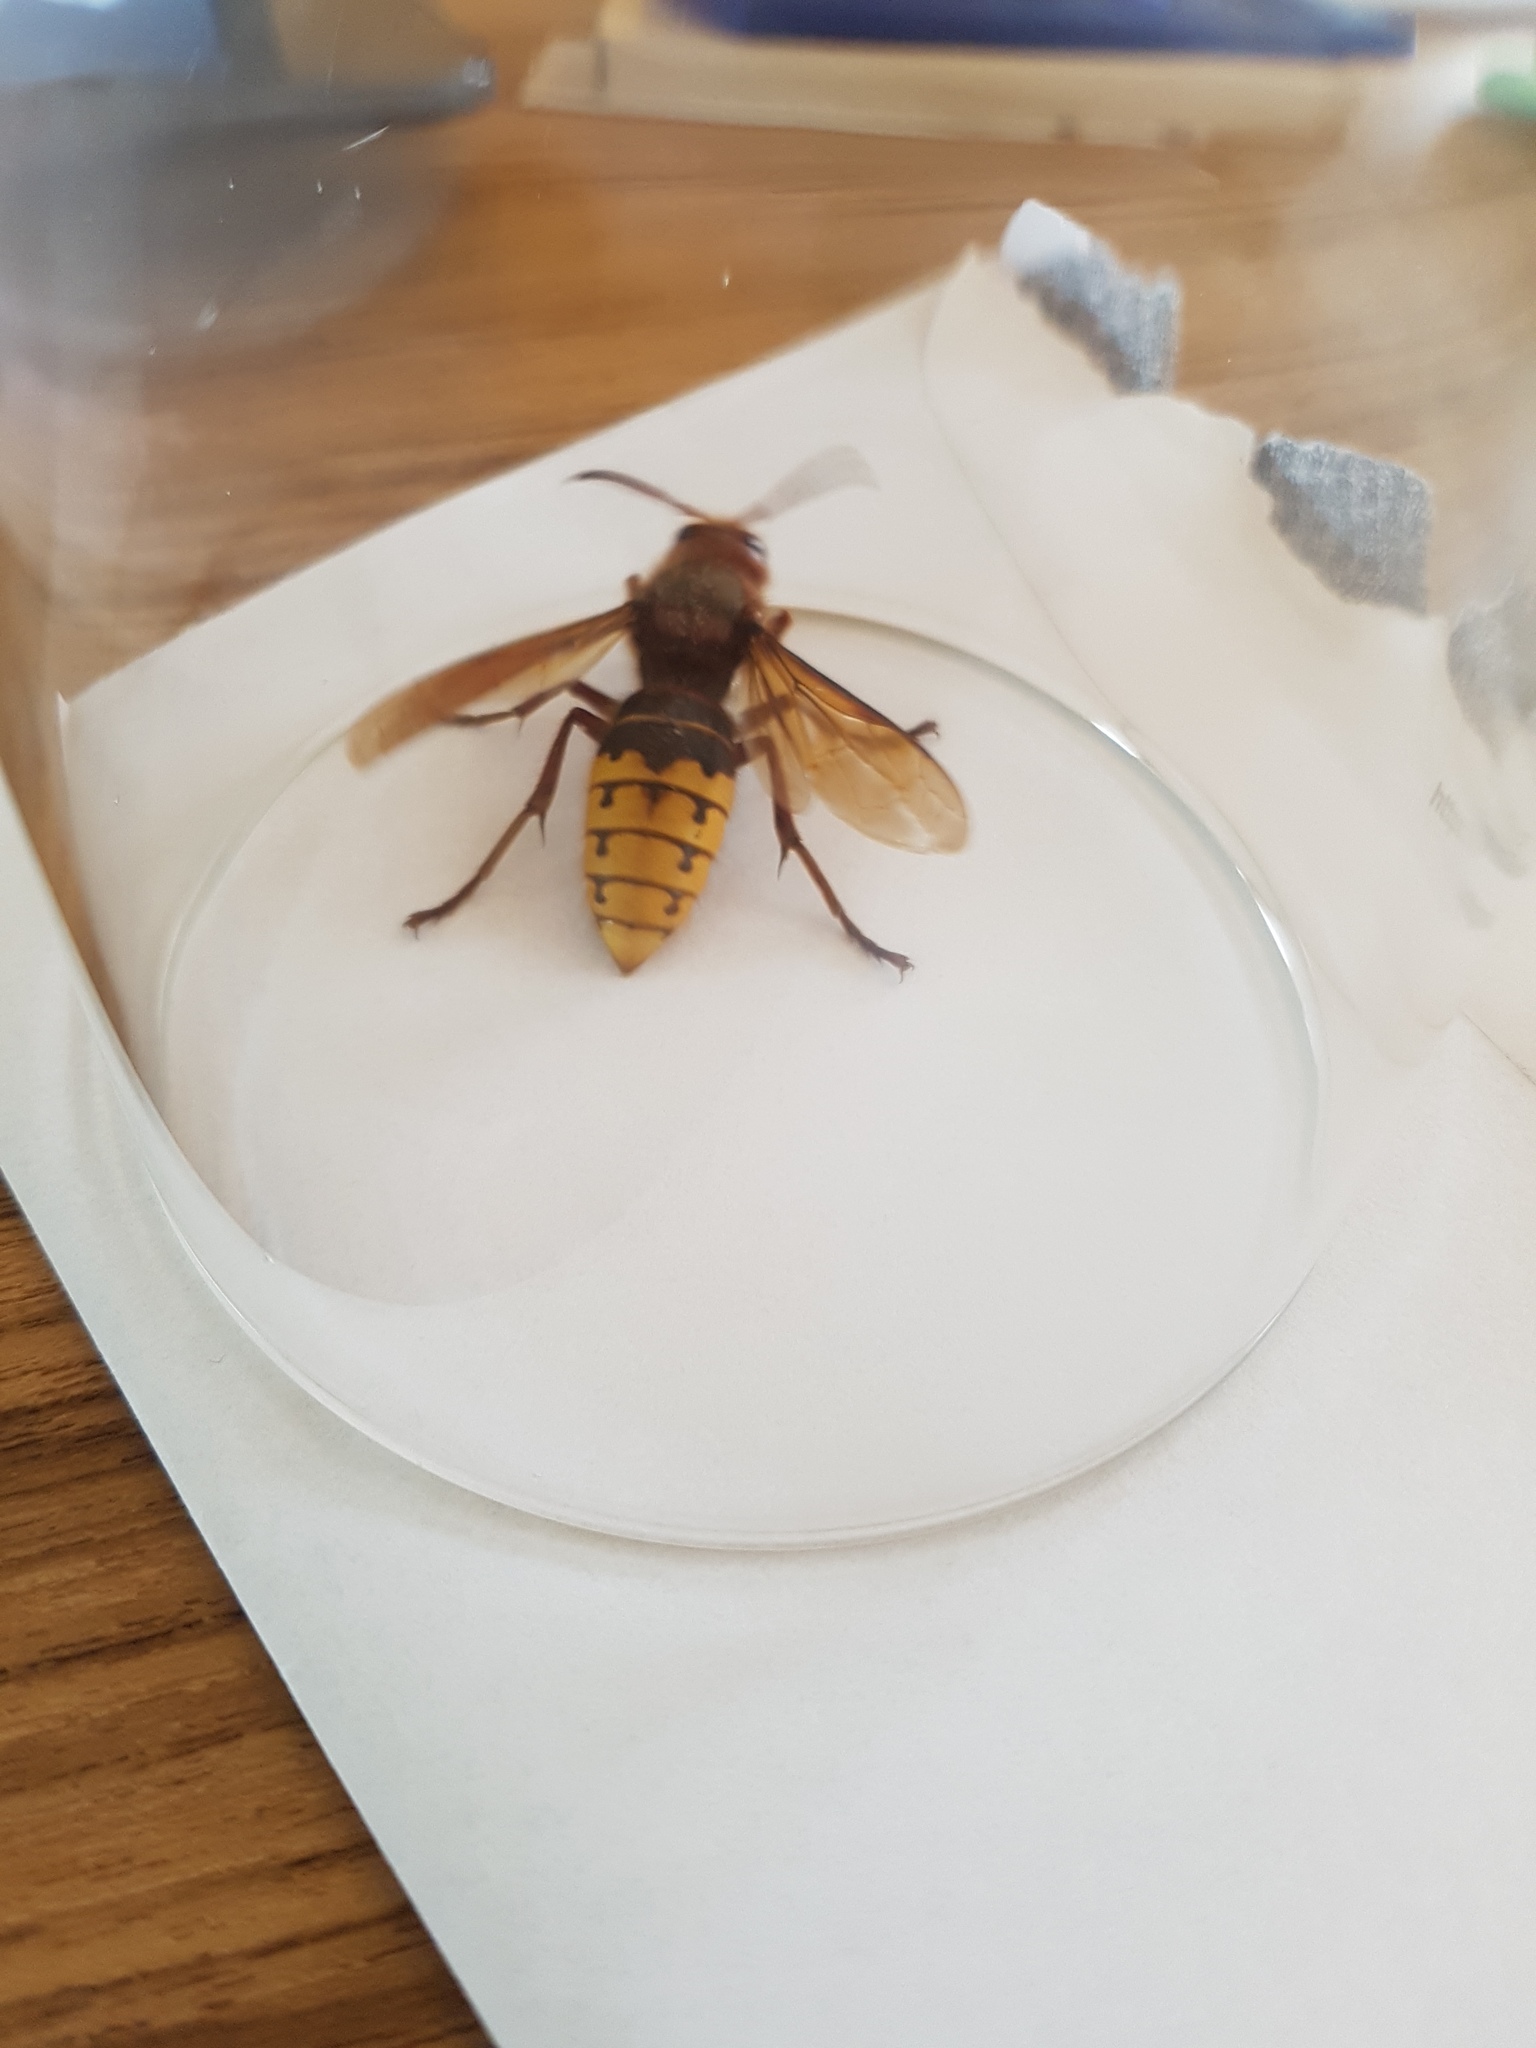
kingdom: Animalia
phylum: Arthropoda
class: Insecta
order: Hymenoptera
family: Vespidae
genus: Vespa
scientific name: Vespa crabro
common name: Hornet
